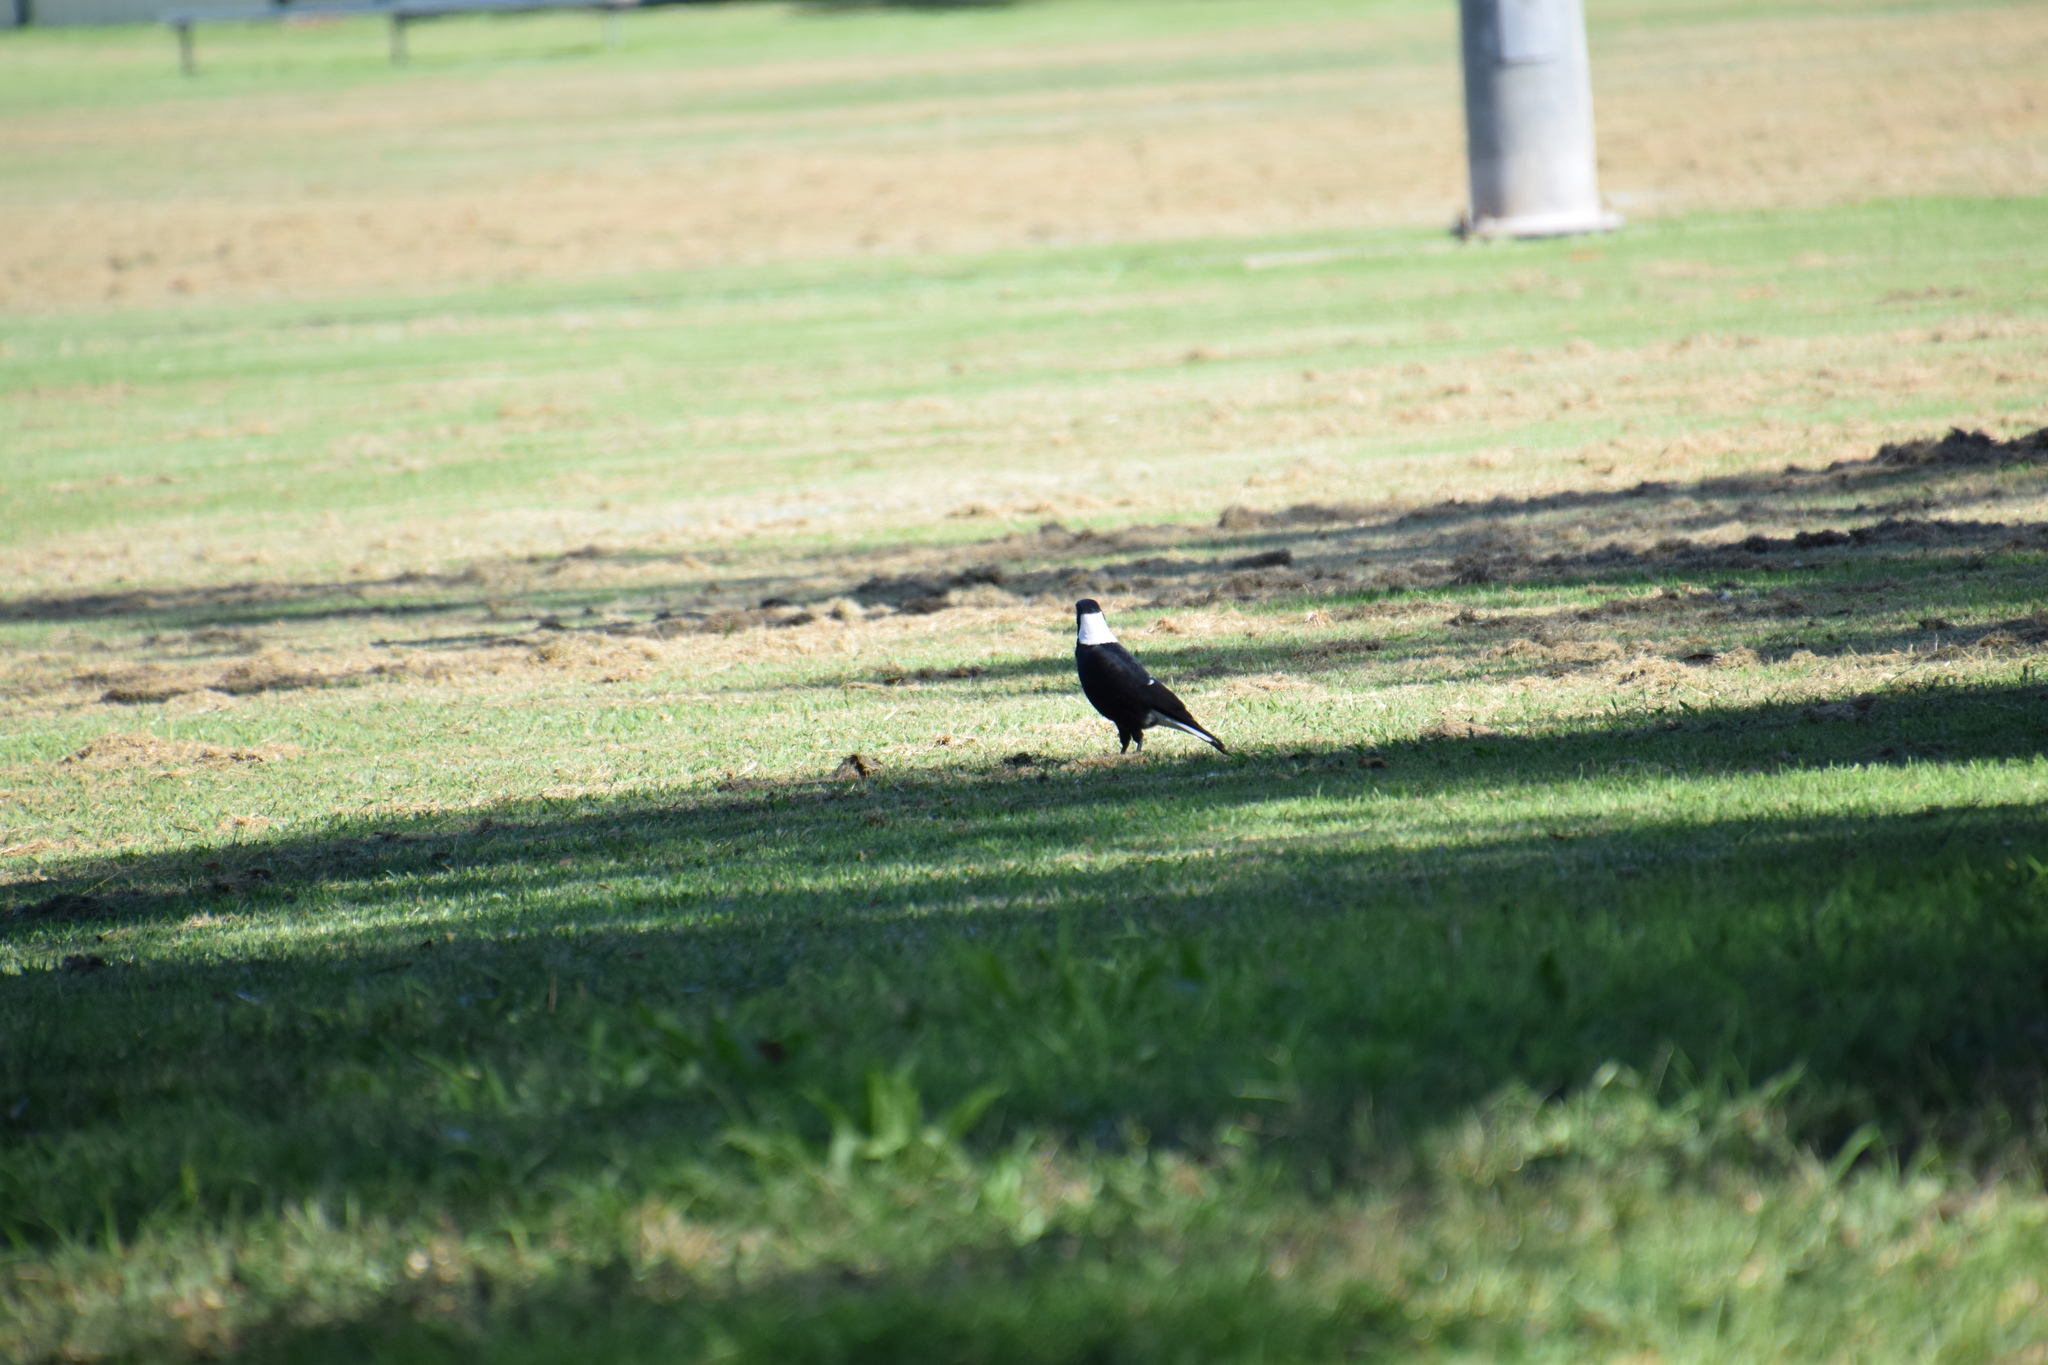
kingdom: Animalia
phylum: Chordata
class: Aves
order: Passeriformes
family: Cracticidae
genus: Gymnorhina
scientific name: Gymnorhina tibicen
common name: Australian magpie
